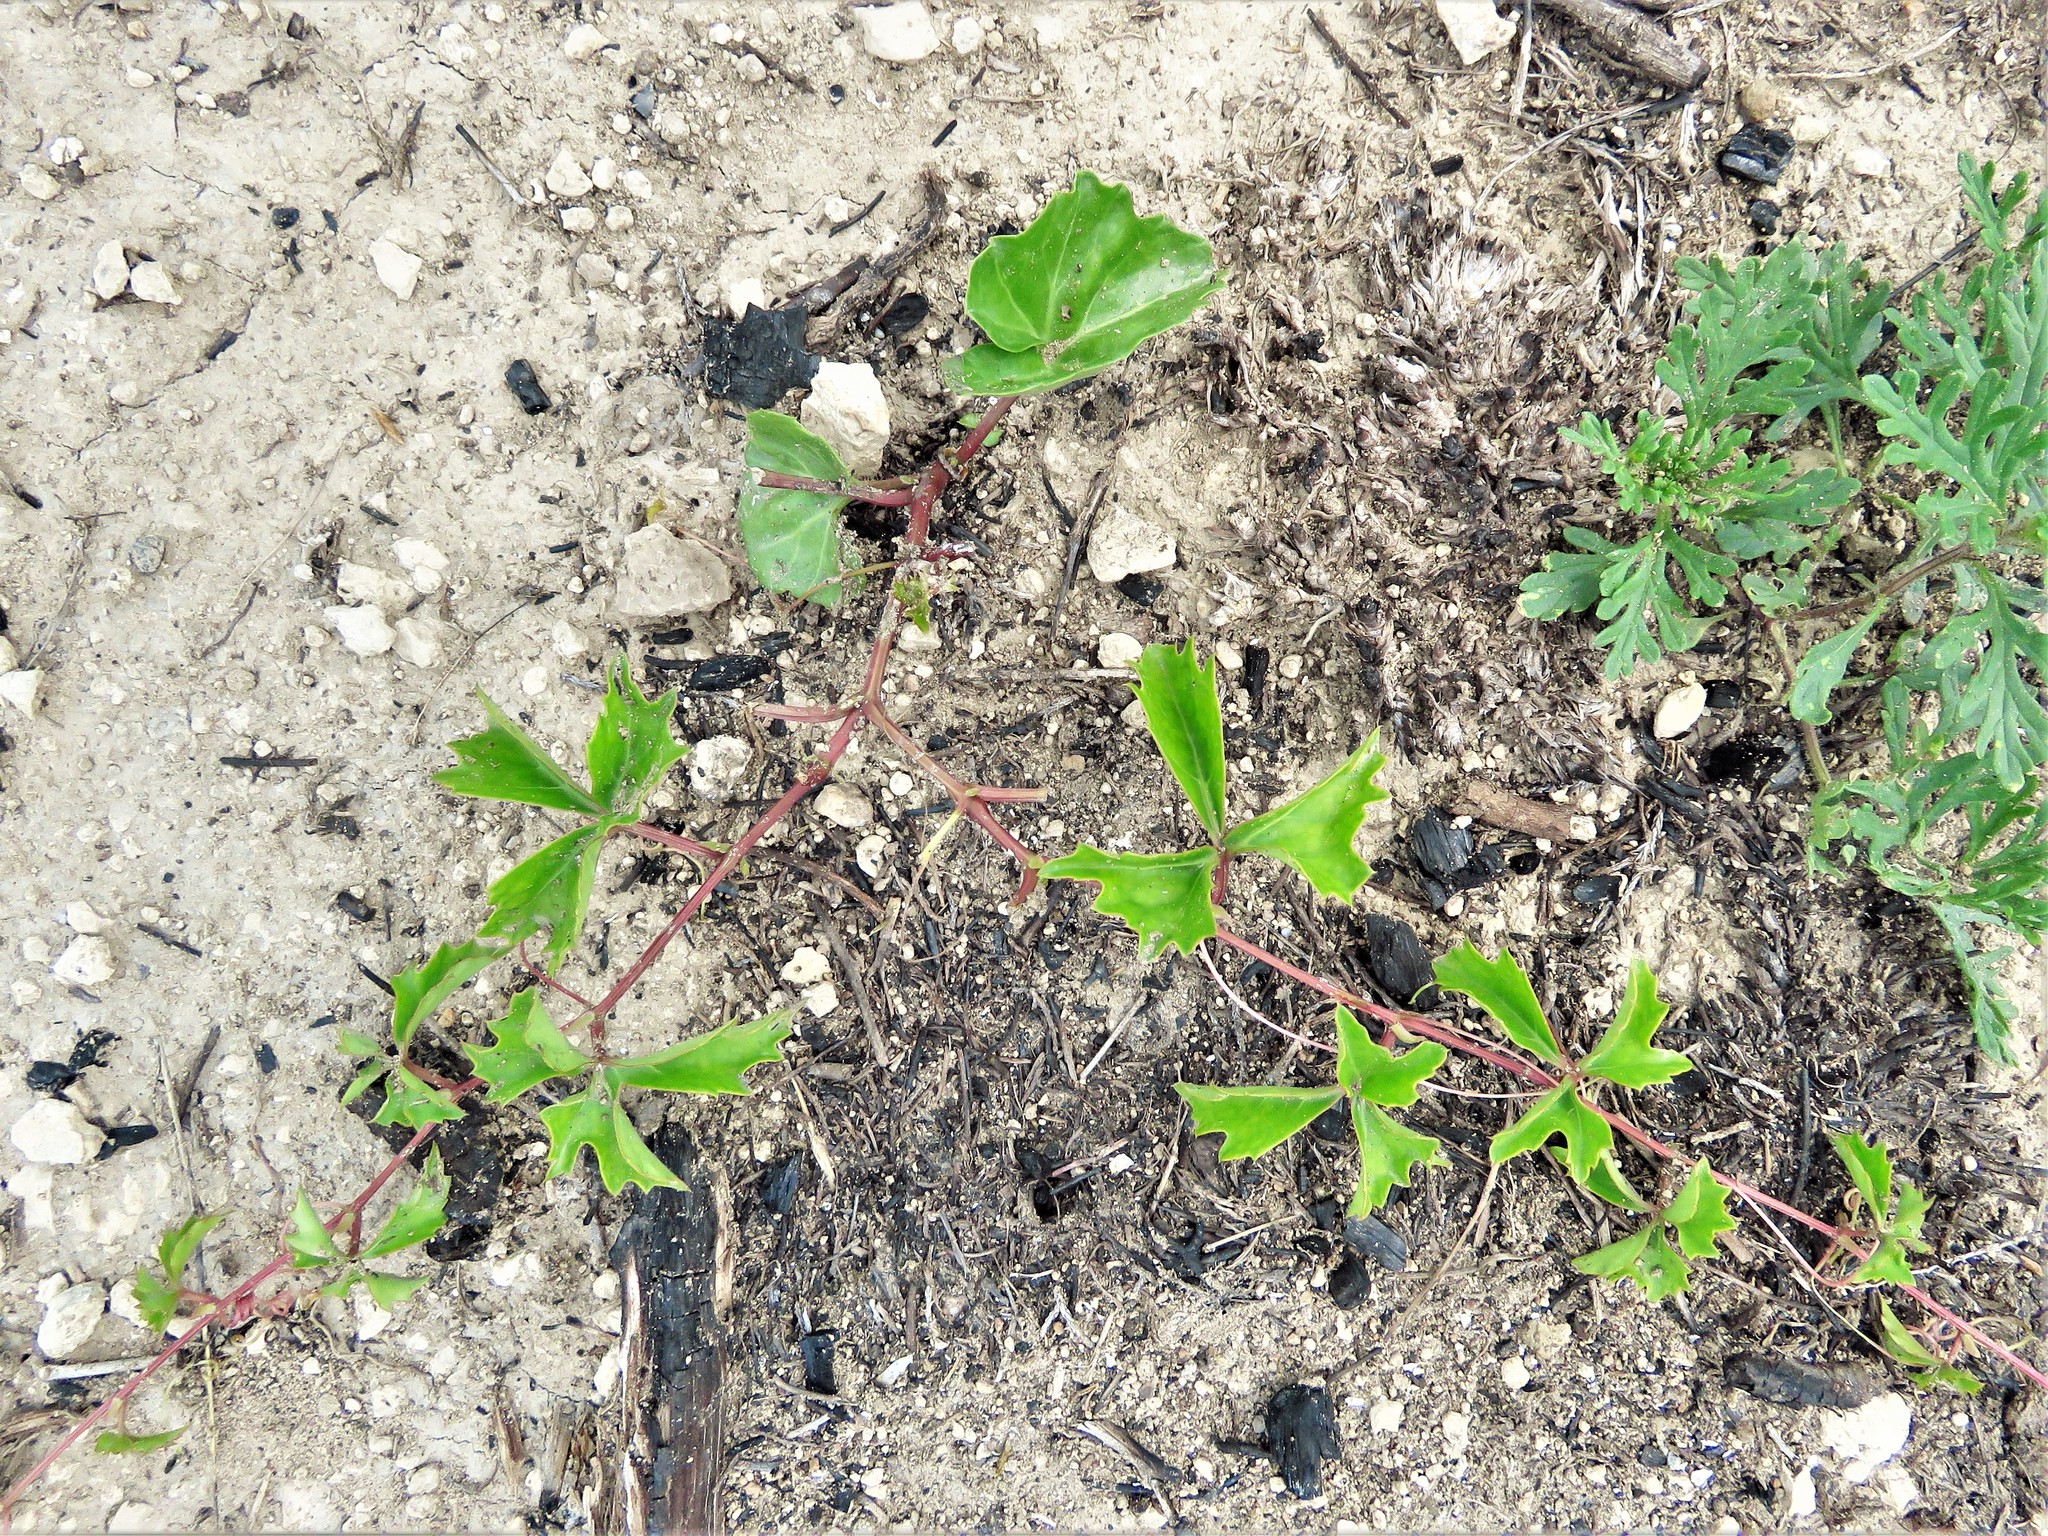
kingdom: Plantae
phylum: Tracheophyta
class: Magnoliopsida
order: Vitales
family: Vitaceae
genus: Cissus
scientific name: Cissus trifoliata
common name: Vine-sorrel
